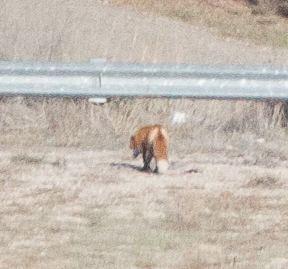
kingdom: Animalia
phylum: Chordata
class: Mammalia
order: Carnivora
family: Canidae
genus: Vulpes
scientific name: Vulpes vulpes
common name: Red fox
